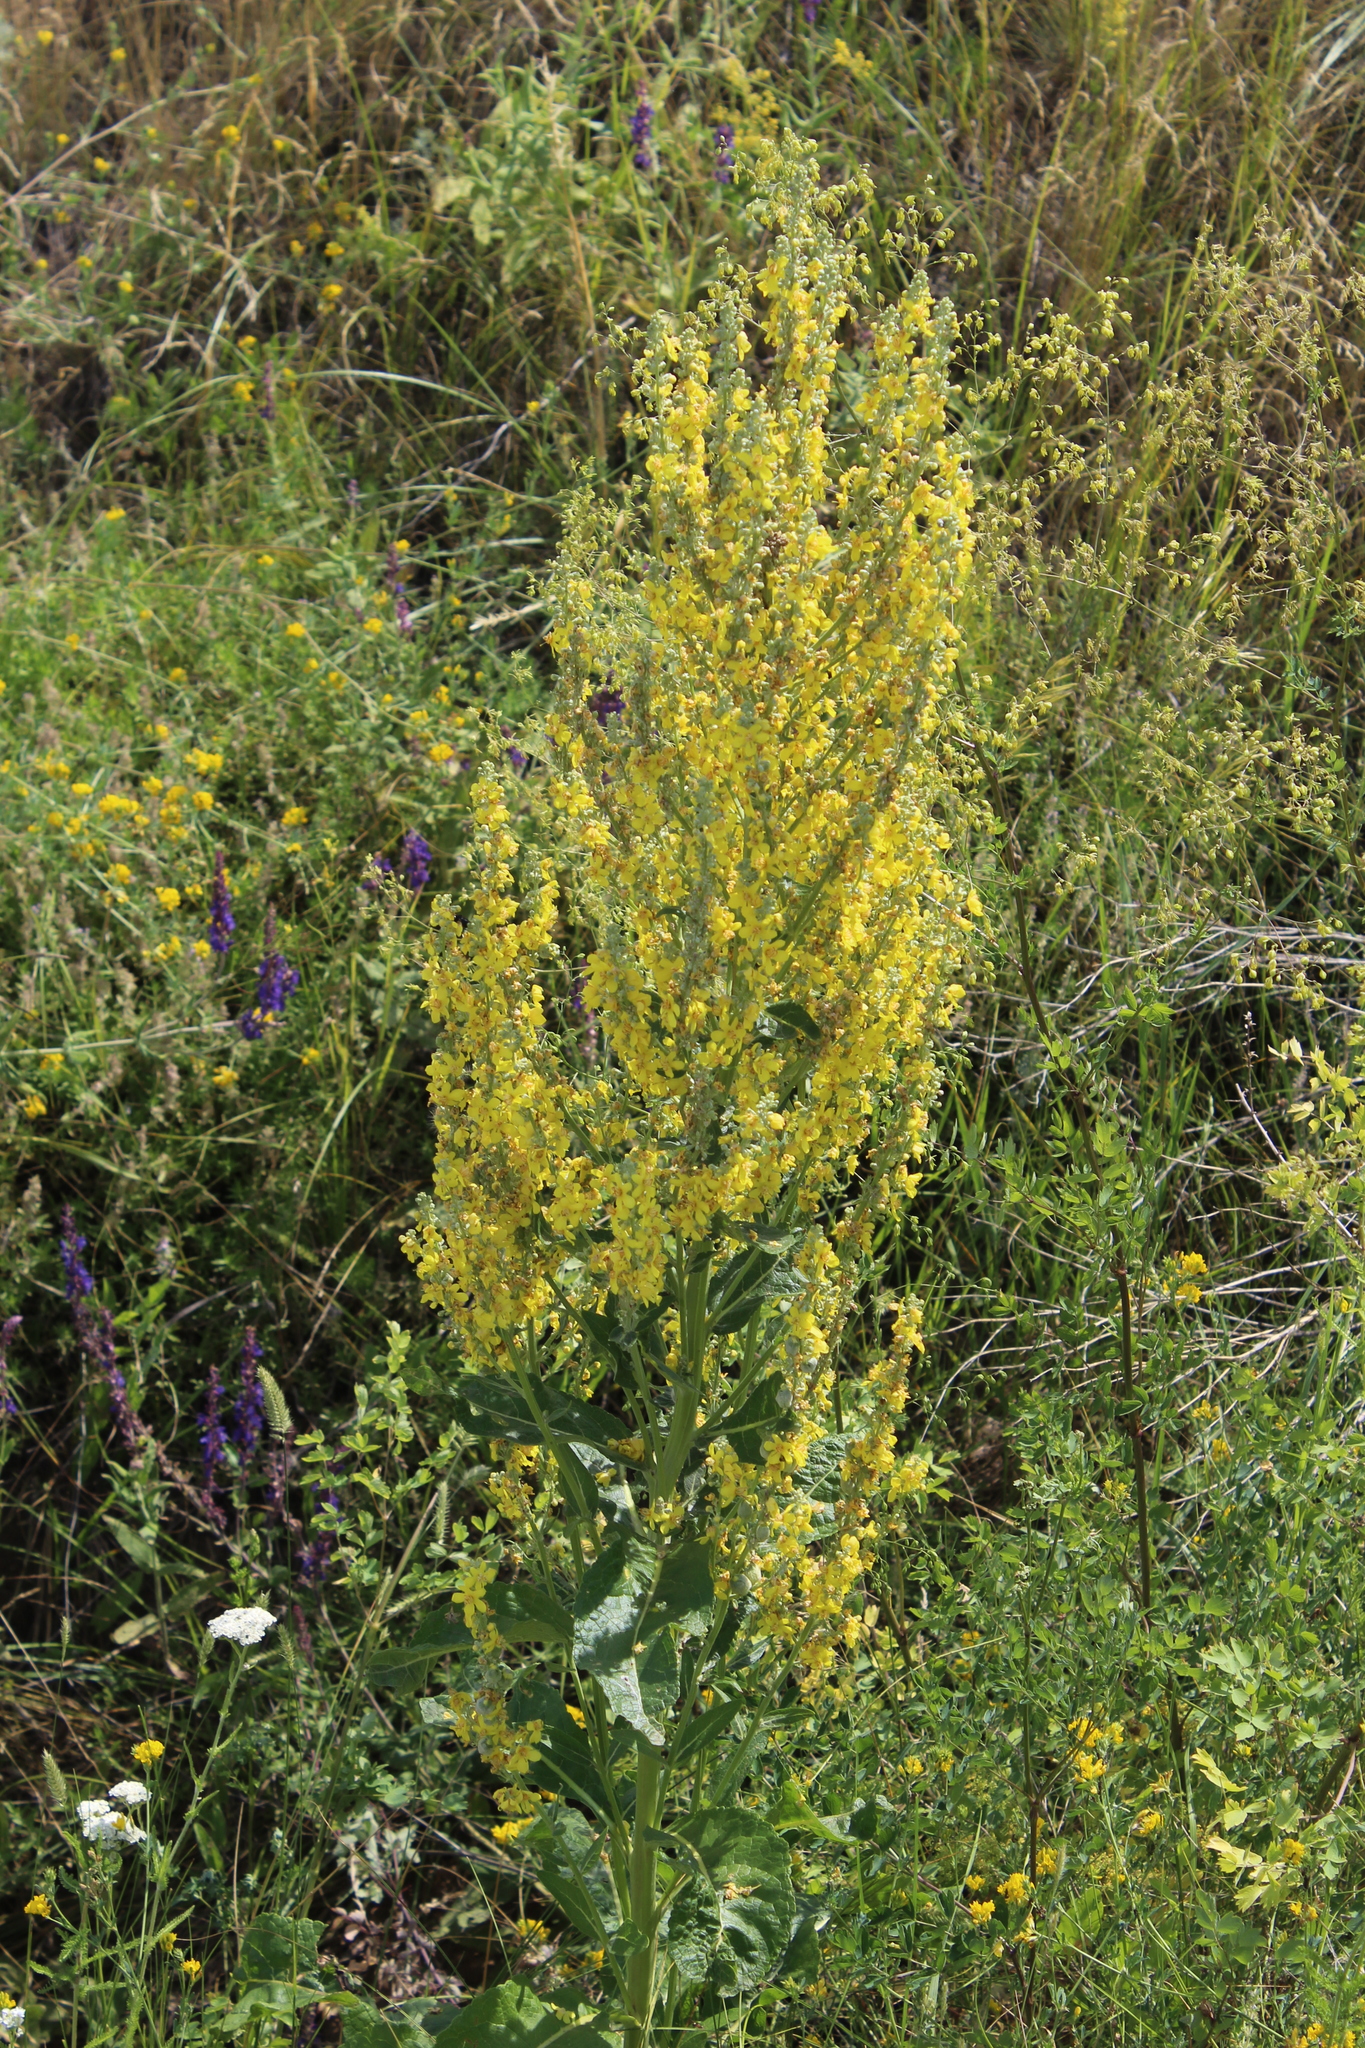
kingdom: Plantae
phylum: Tracheophyta
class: Magnoliopsida
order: Lamiales
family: Scrophulariaceae
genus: Verbascum
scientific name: Verbascum lychnitis
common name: White mullein
